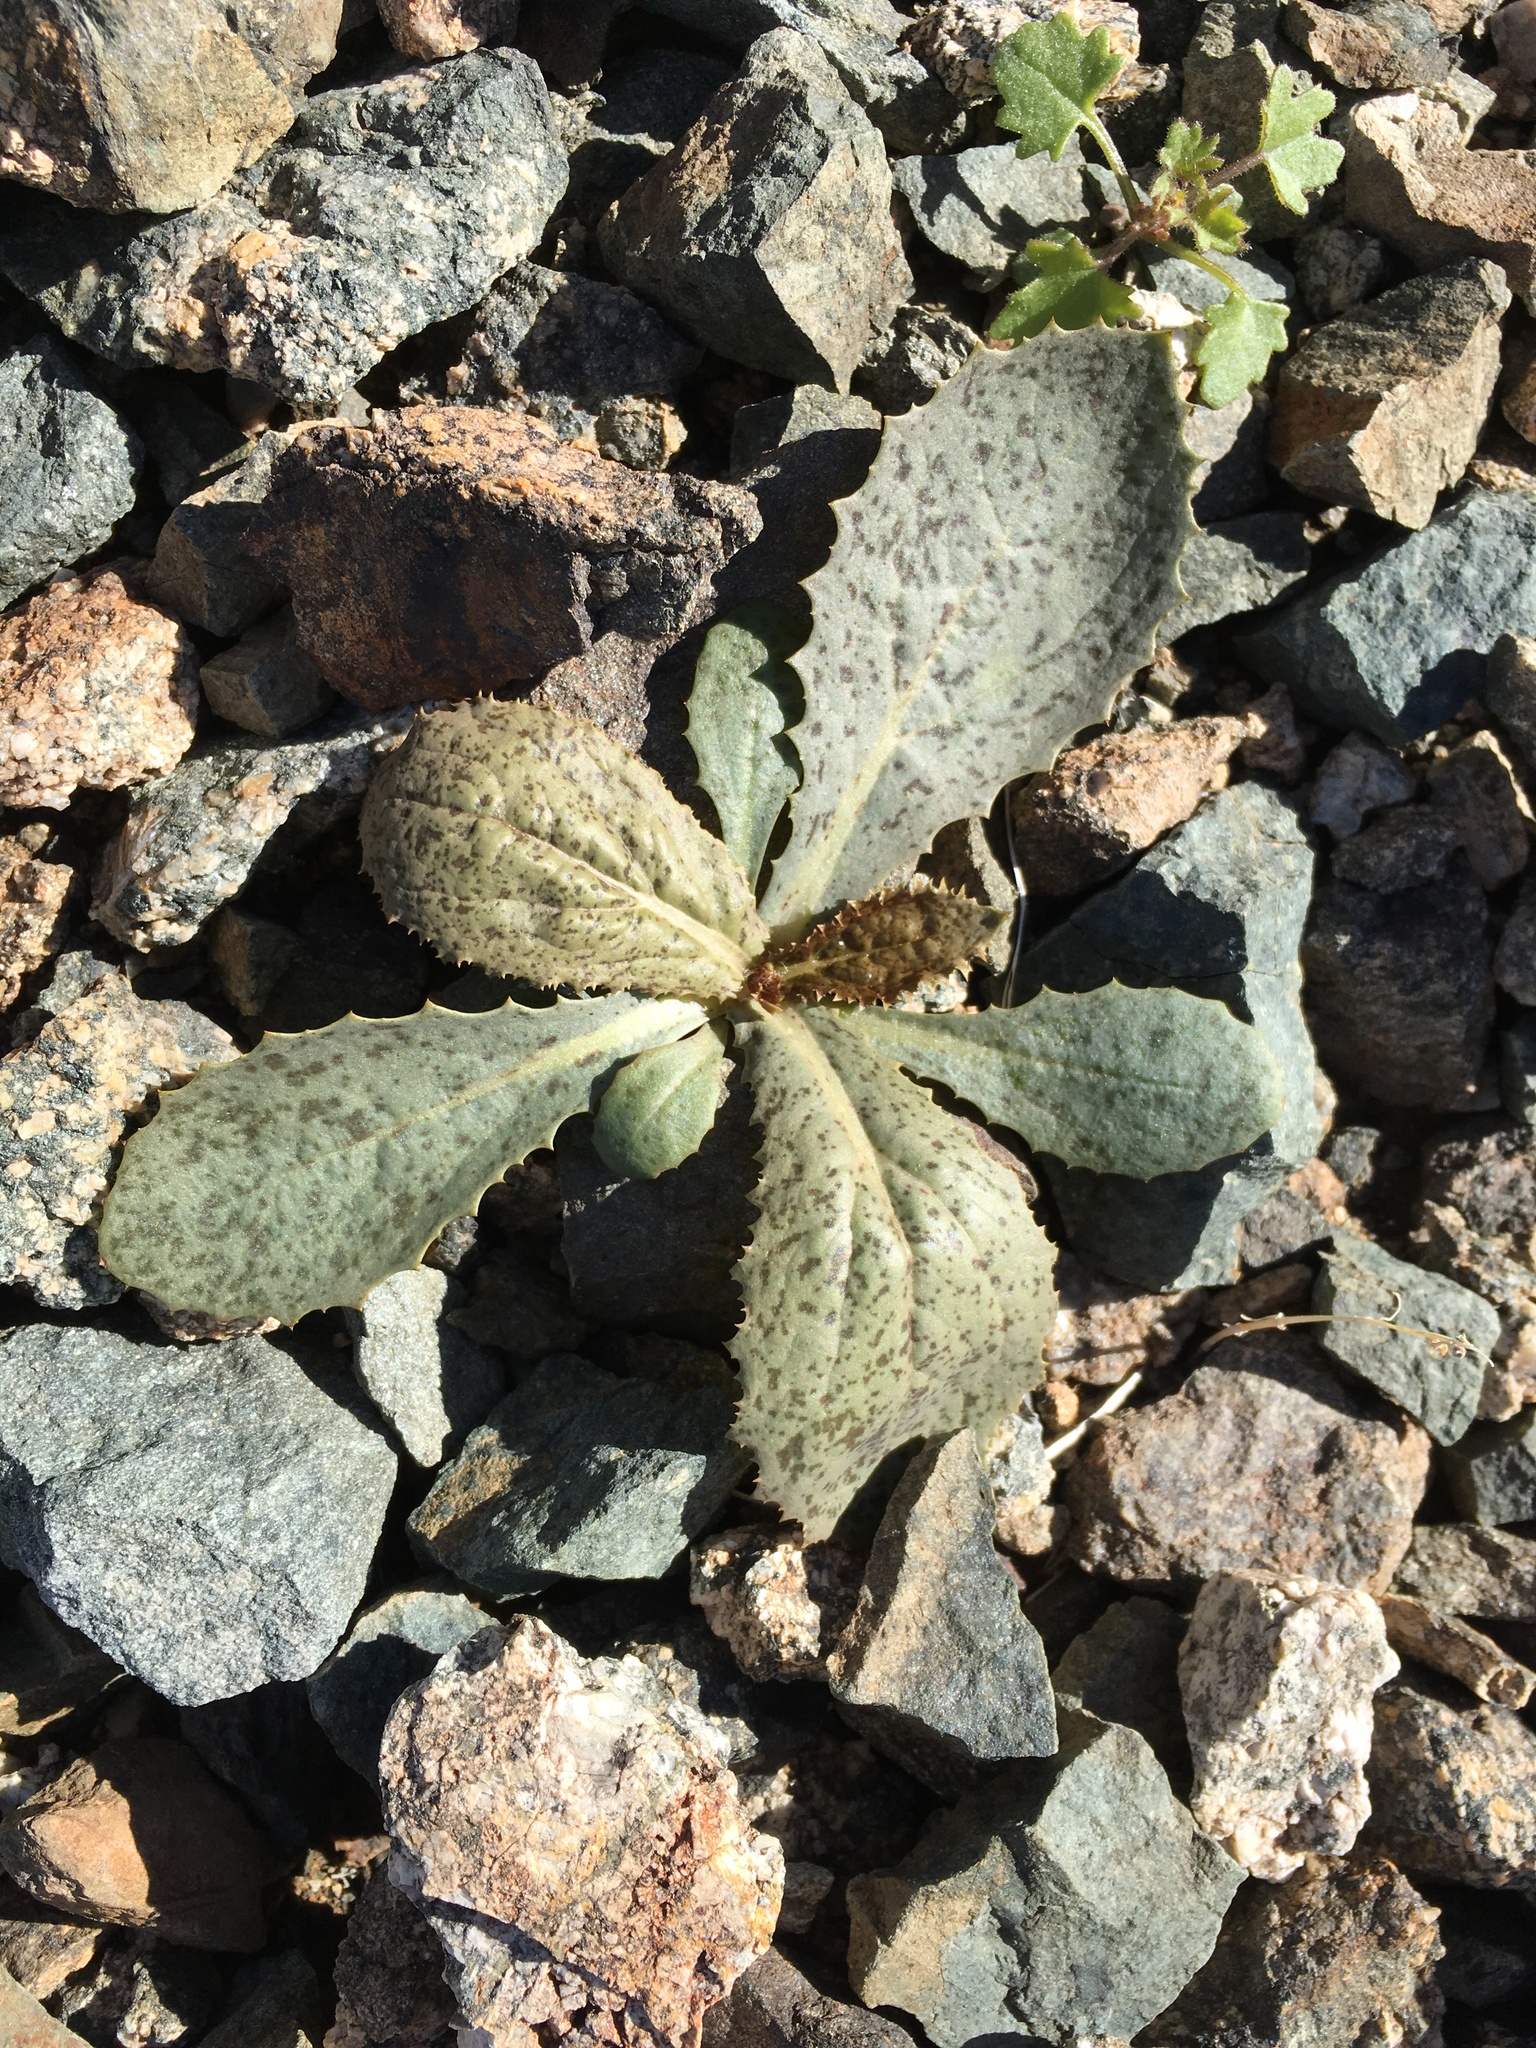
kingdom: Plantae
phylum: Tracheophyta
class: Magnoliopsida
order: Asterales
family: Asteraceae
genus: Atrichoseris
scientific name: Atrichoseris platyphylla
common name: Tobaccoweed
